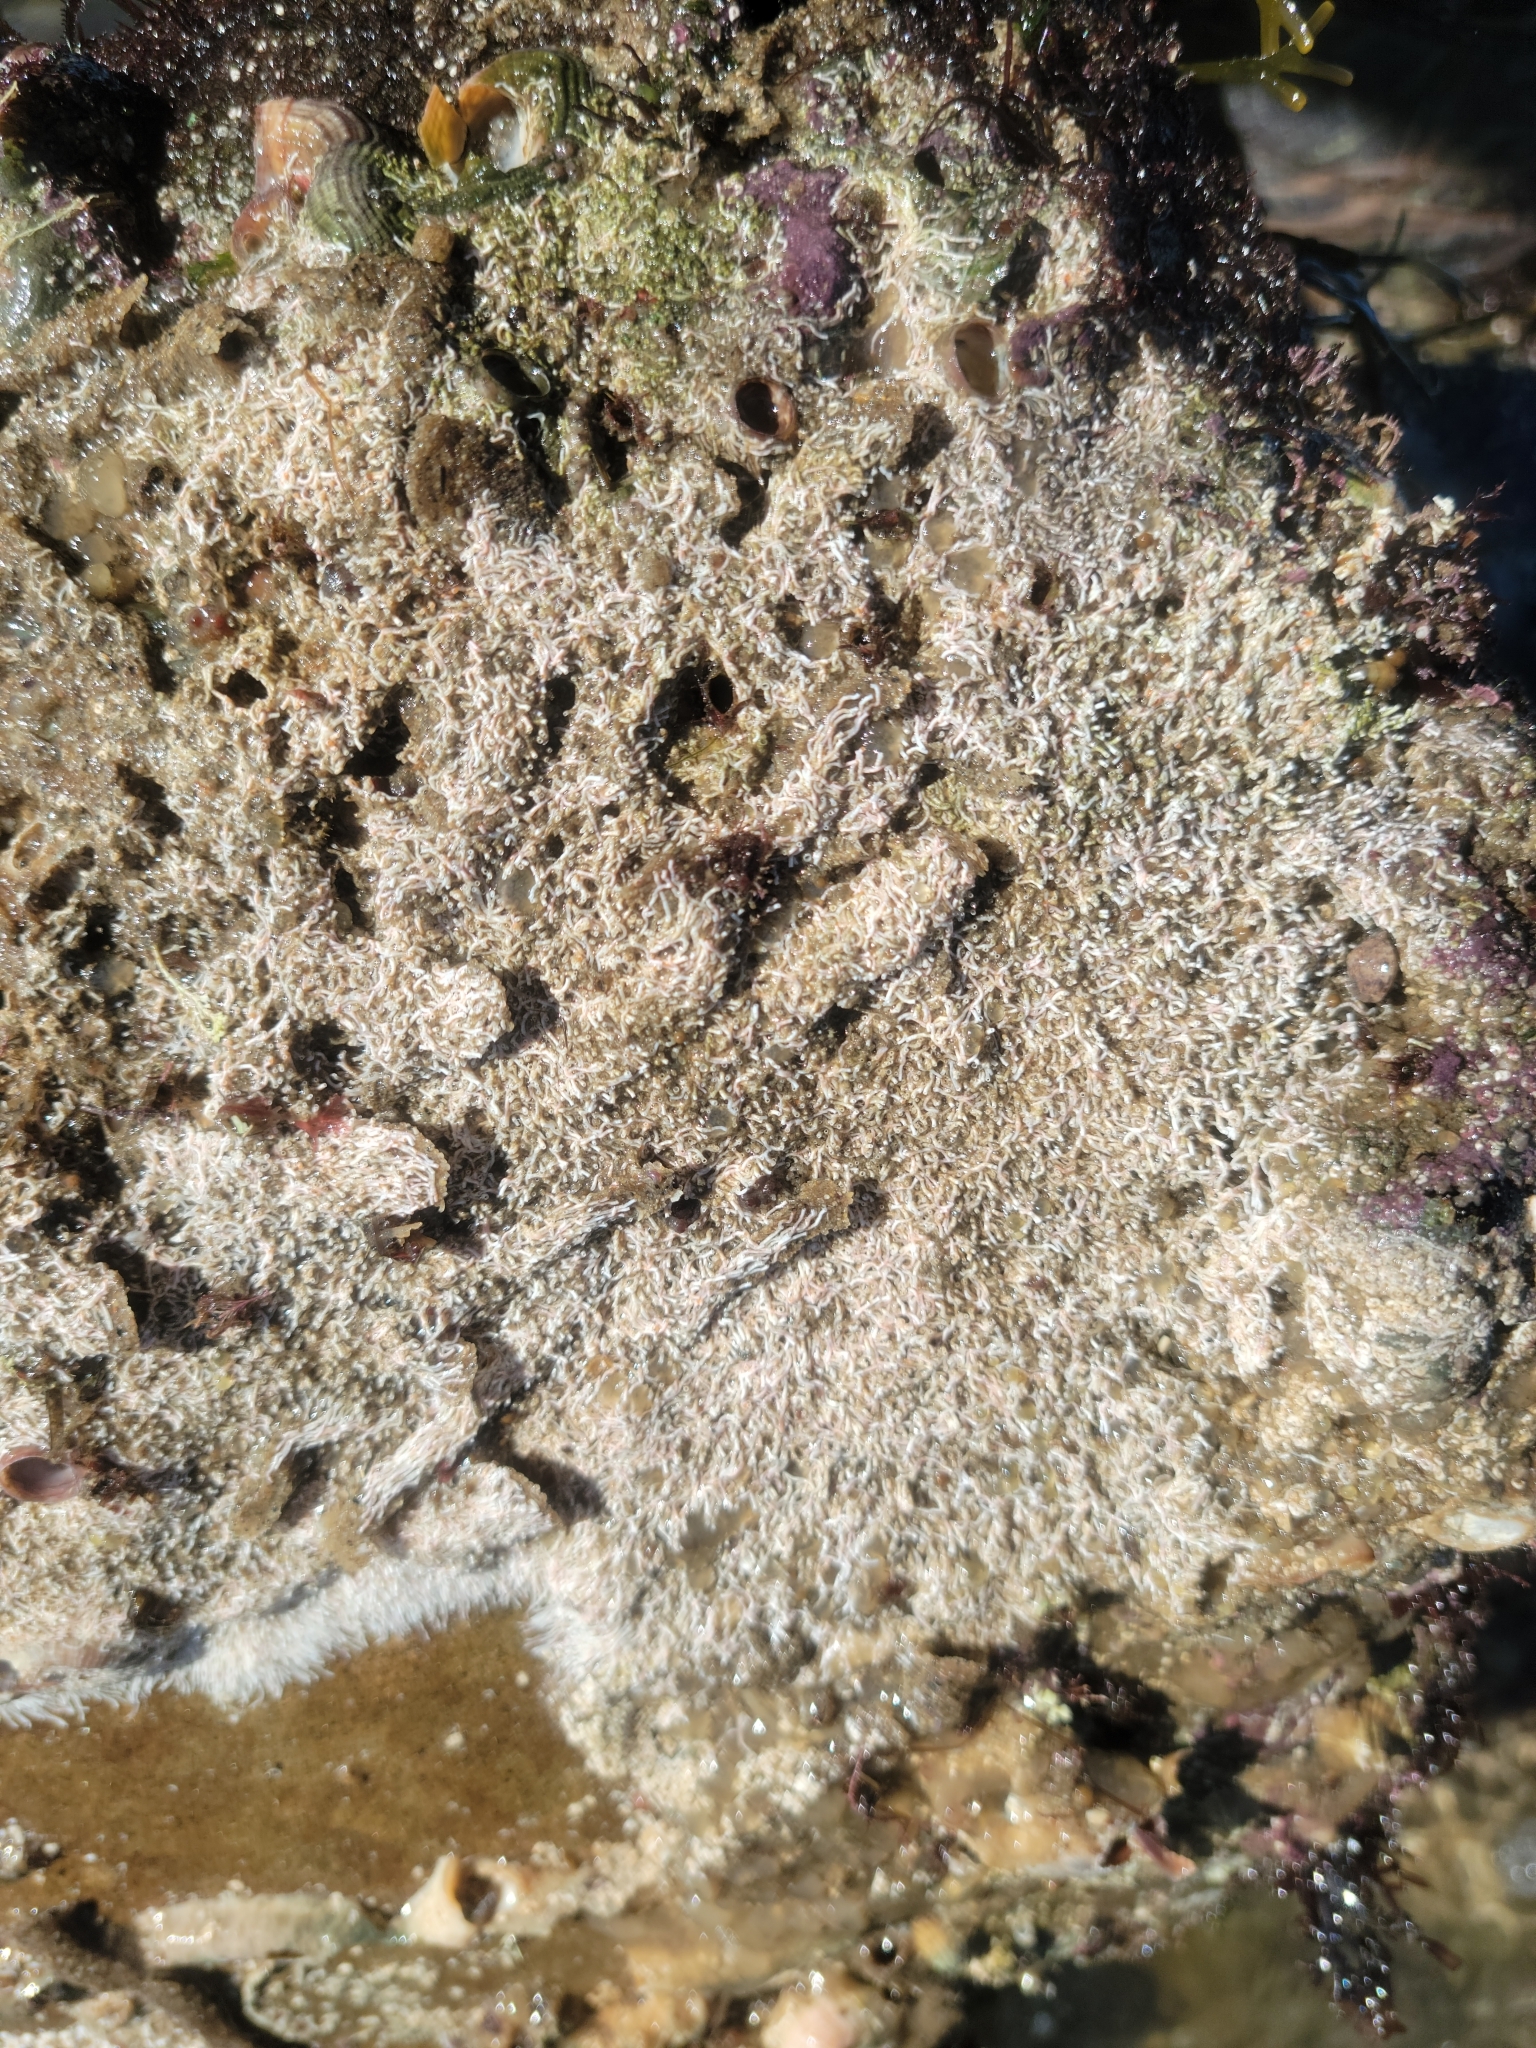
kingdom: Animalia
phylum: Annelida
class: Polychaeta
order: Sabellida
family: Serpulidae
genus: Salmacina
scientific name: Salmacina tribranchiata
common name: Fouling serpulid
